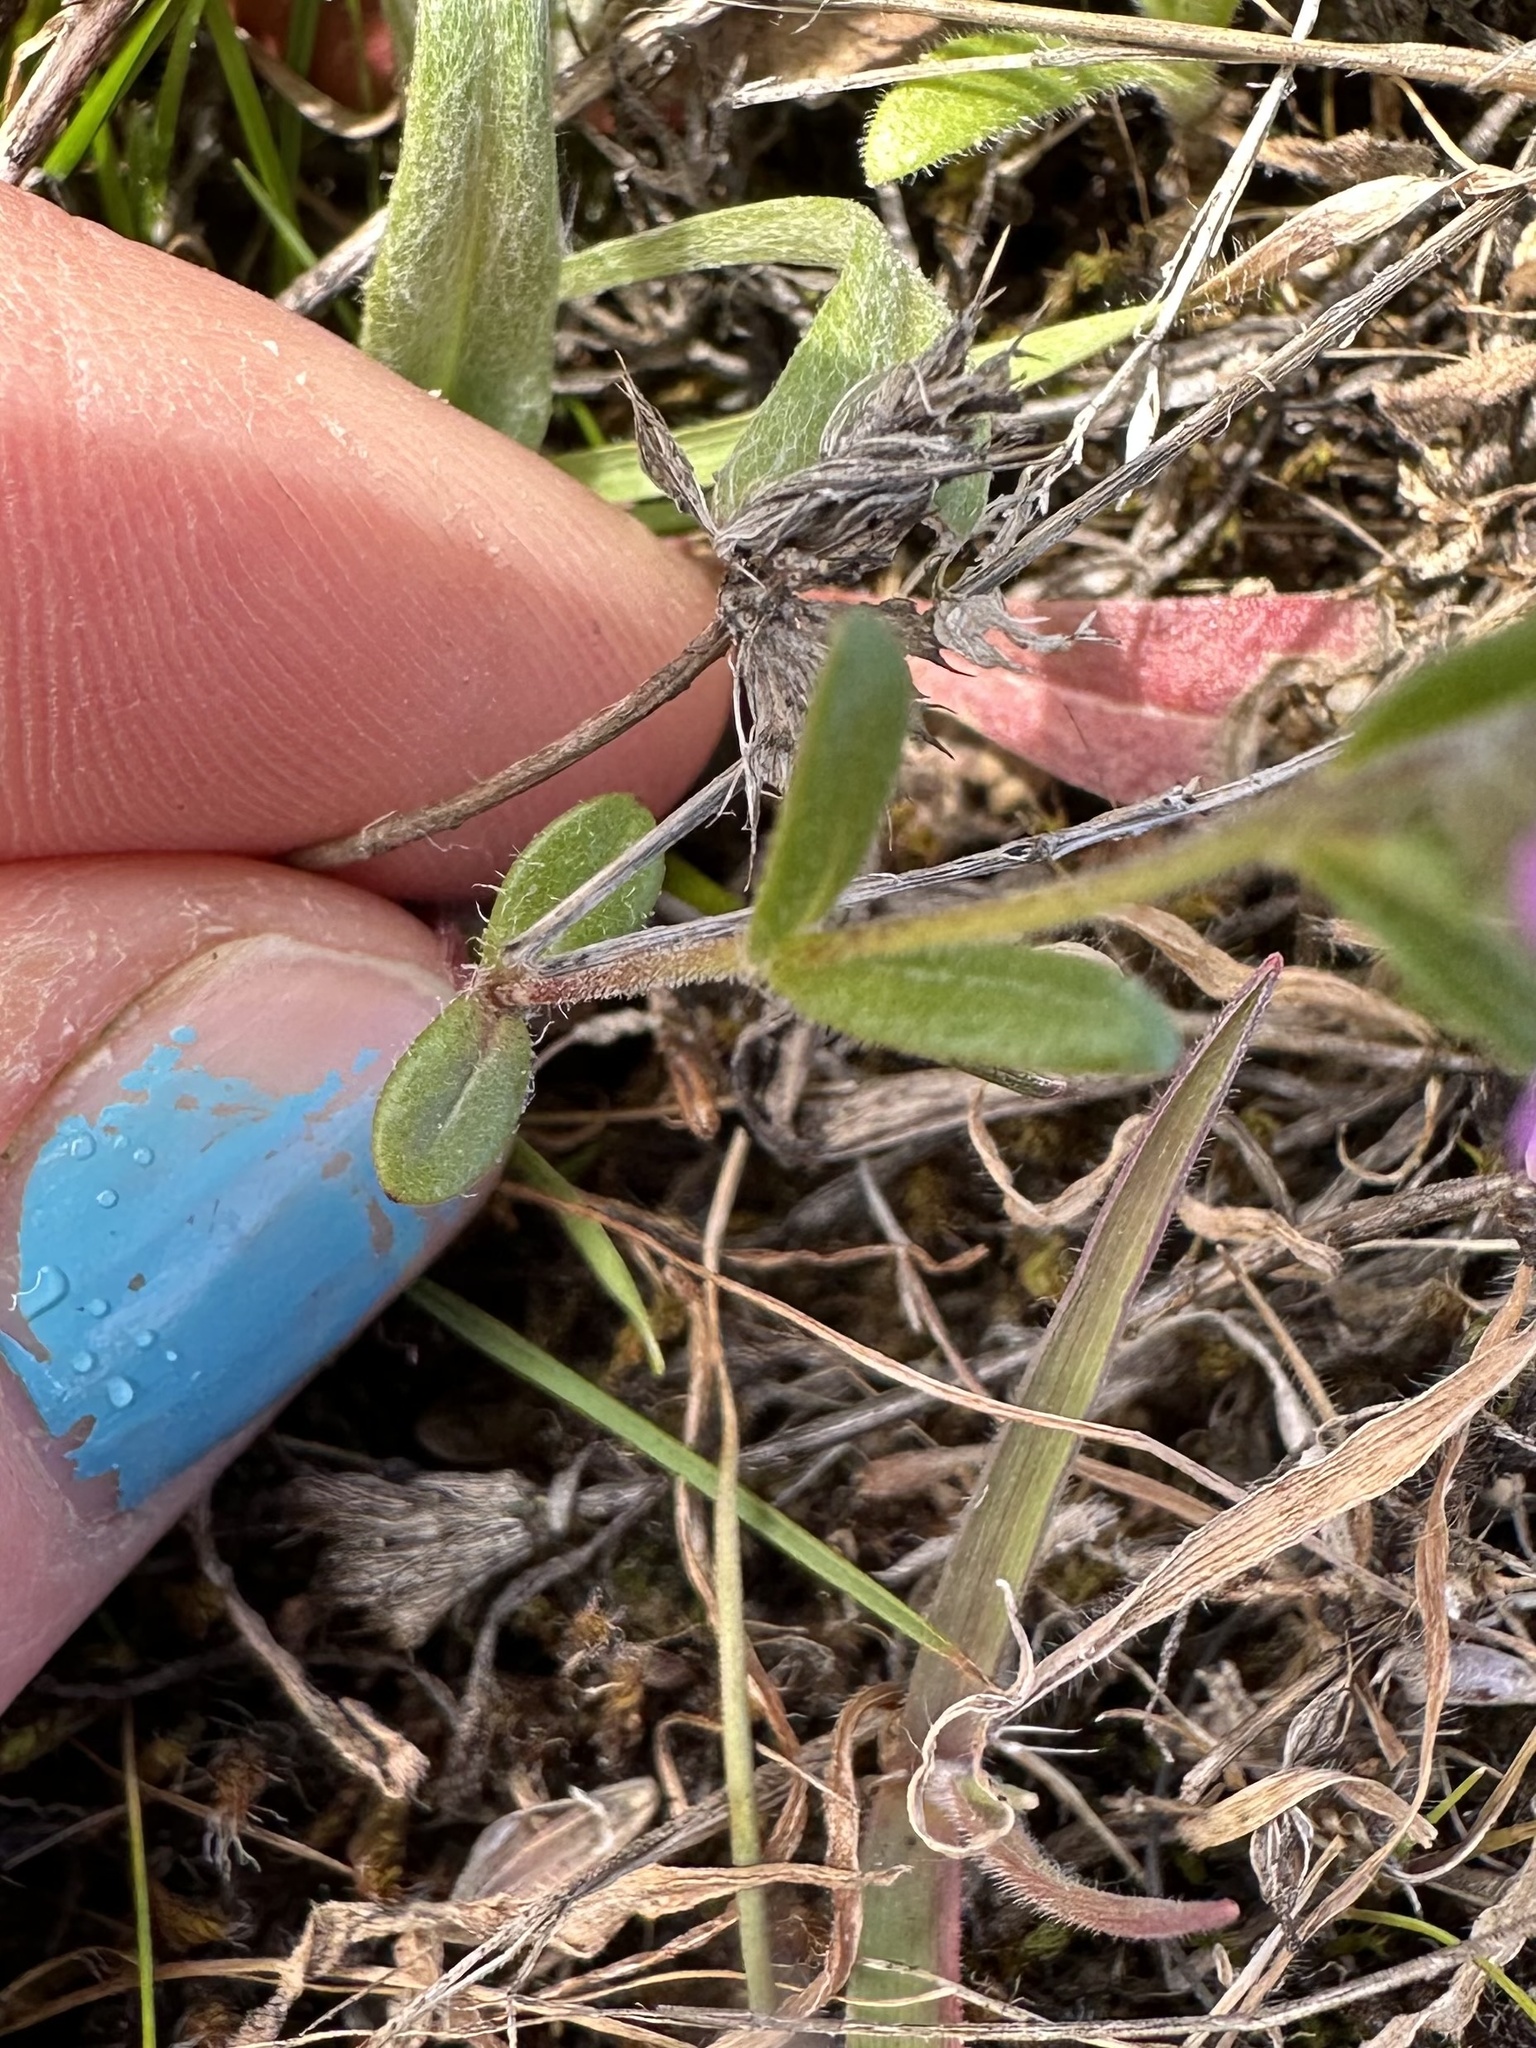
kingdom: Plantae
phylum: Tracheophyta
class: Magnoliopsida
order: Ericales
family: Polemoniaceae
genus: Phlox
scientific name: Phlox gracilis
